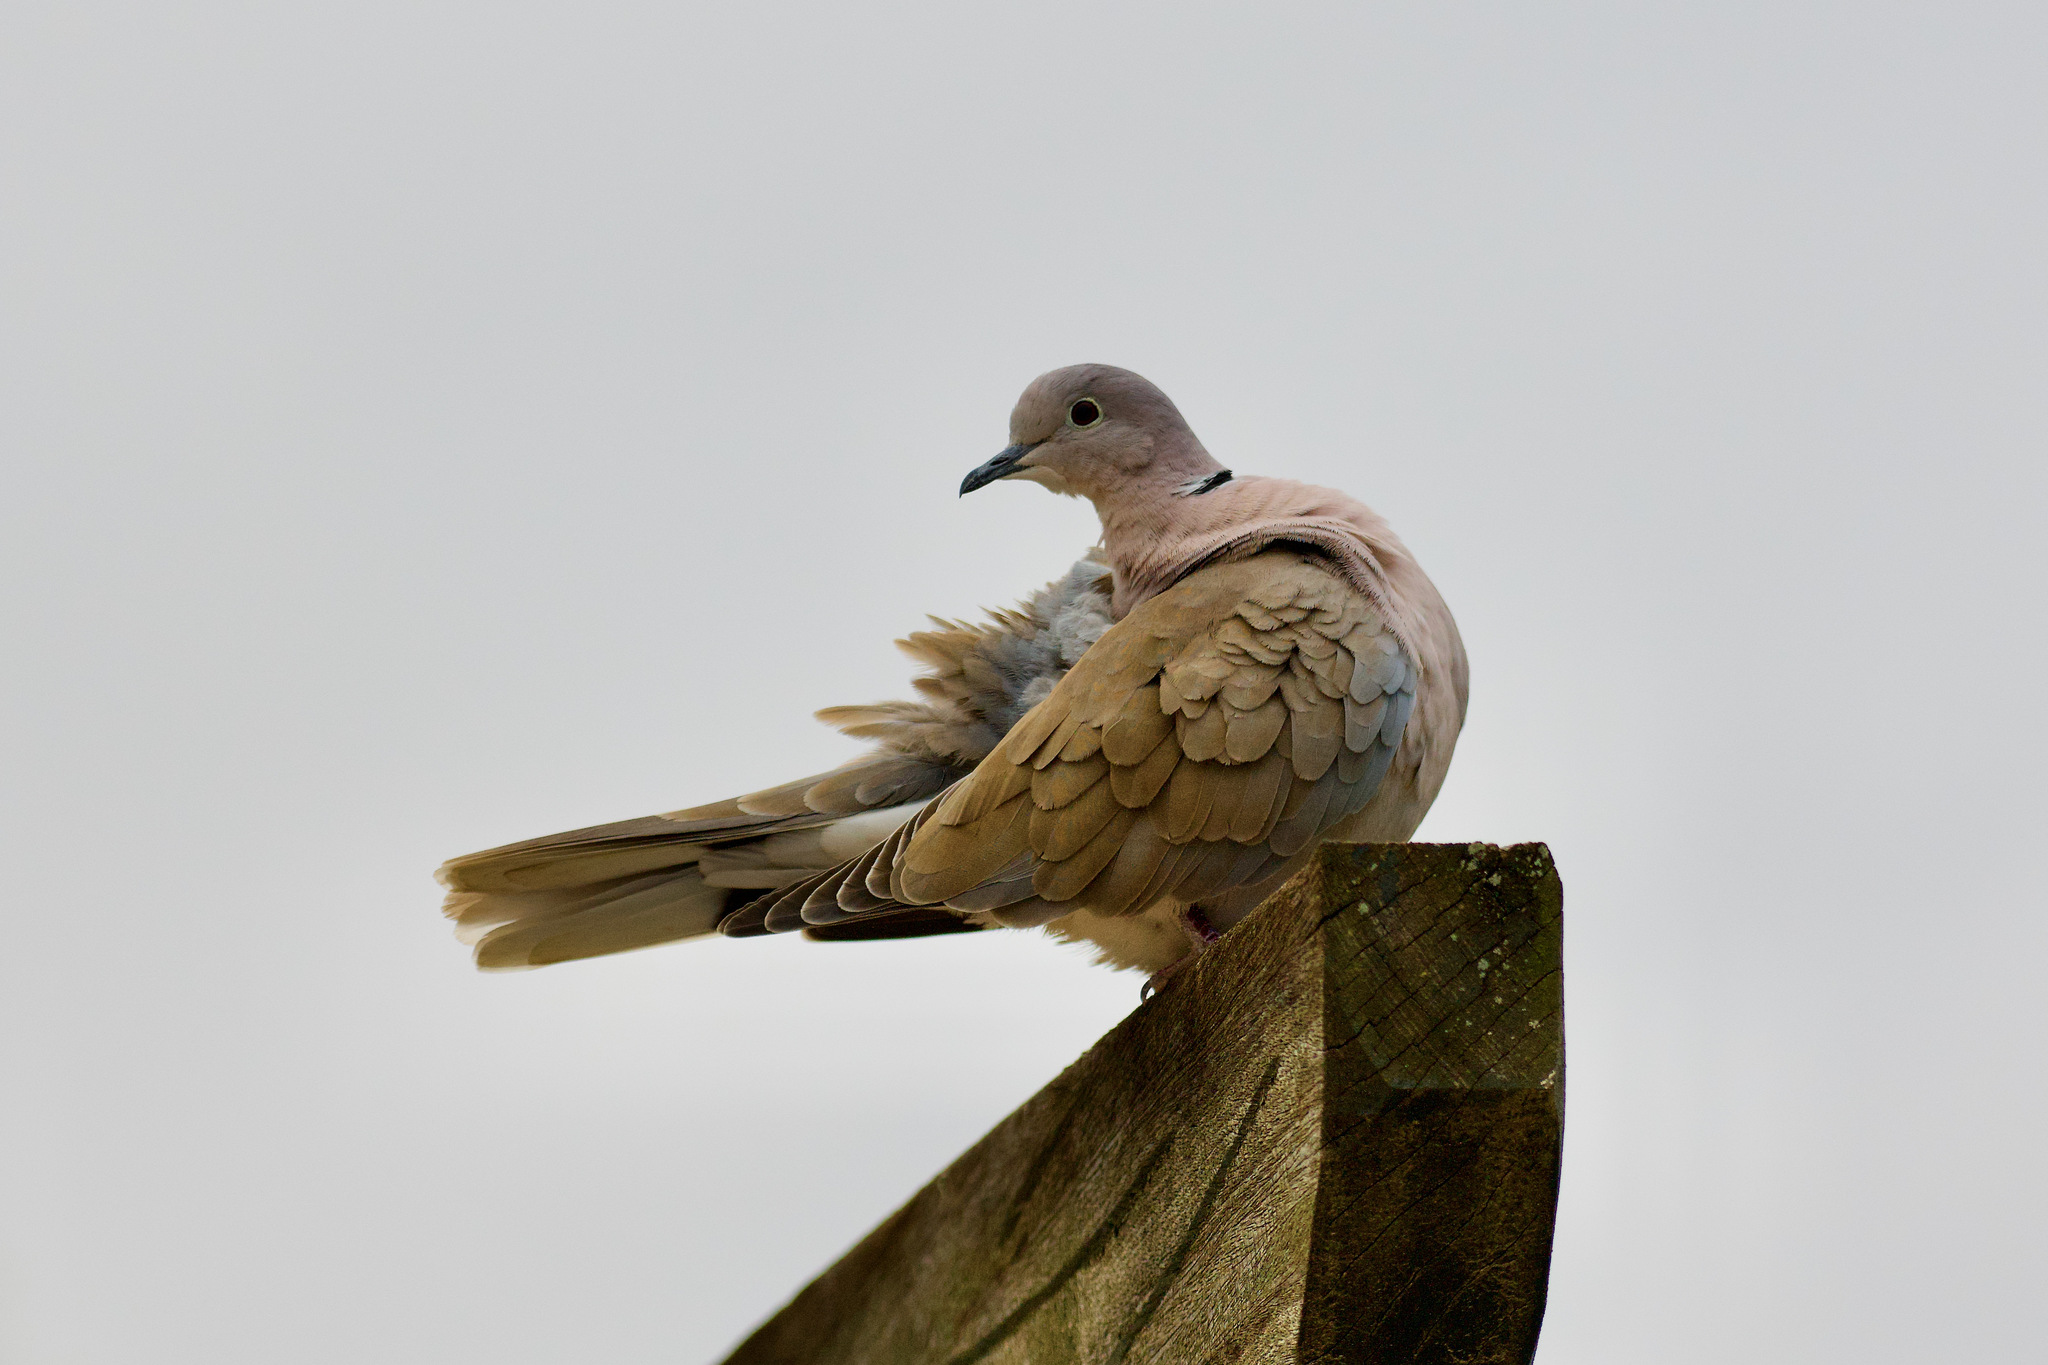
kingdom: Animalia
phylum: Chordata
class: Aves
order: Columbiformes
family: Columbidae
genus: Streptopelia
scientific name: Streptopelia roseogrisea
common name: African collared dove
